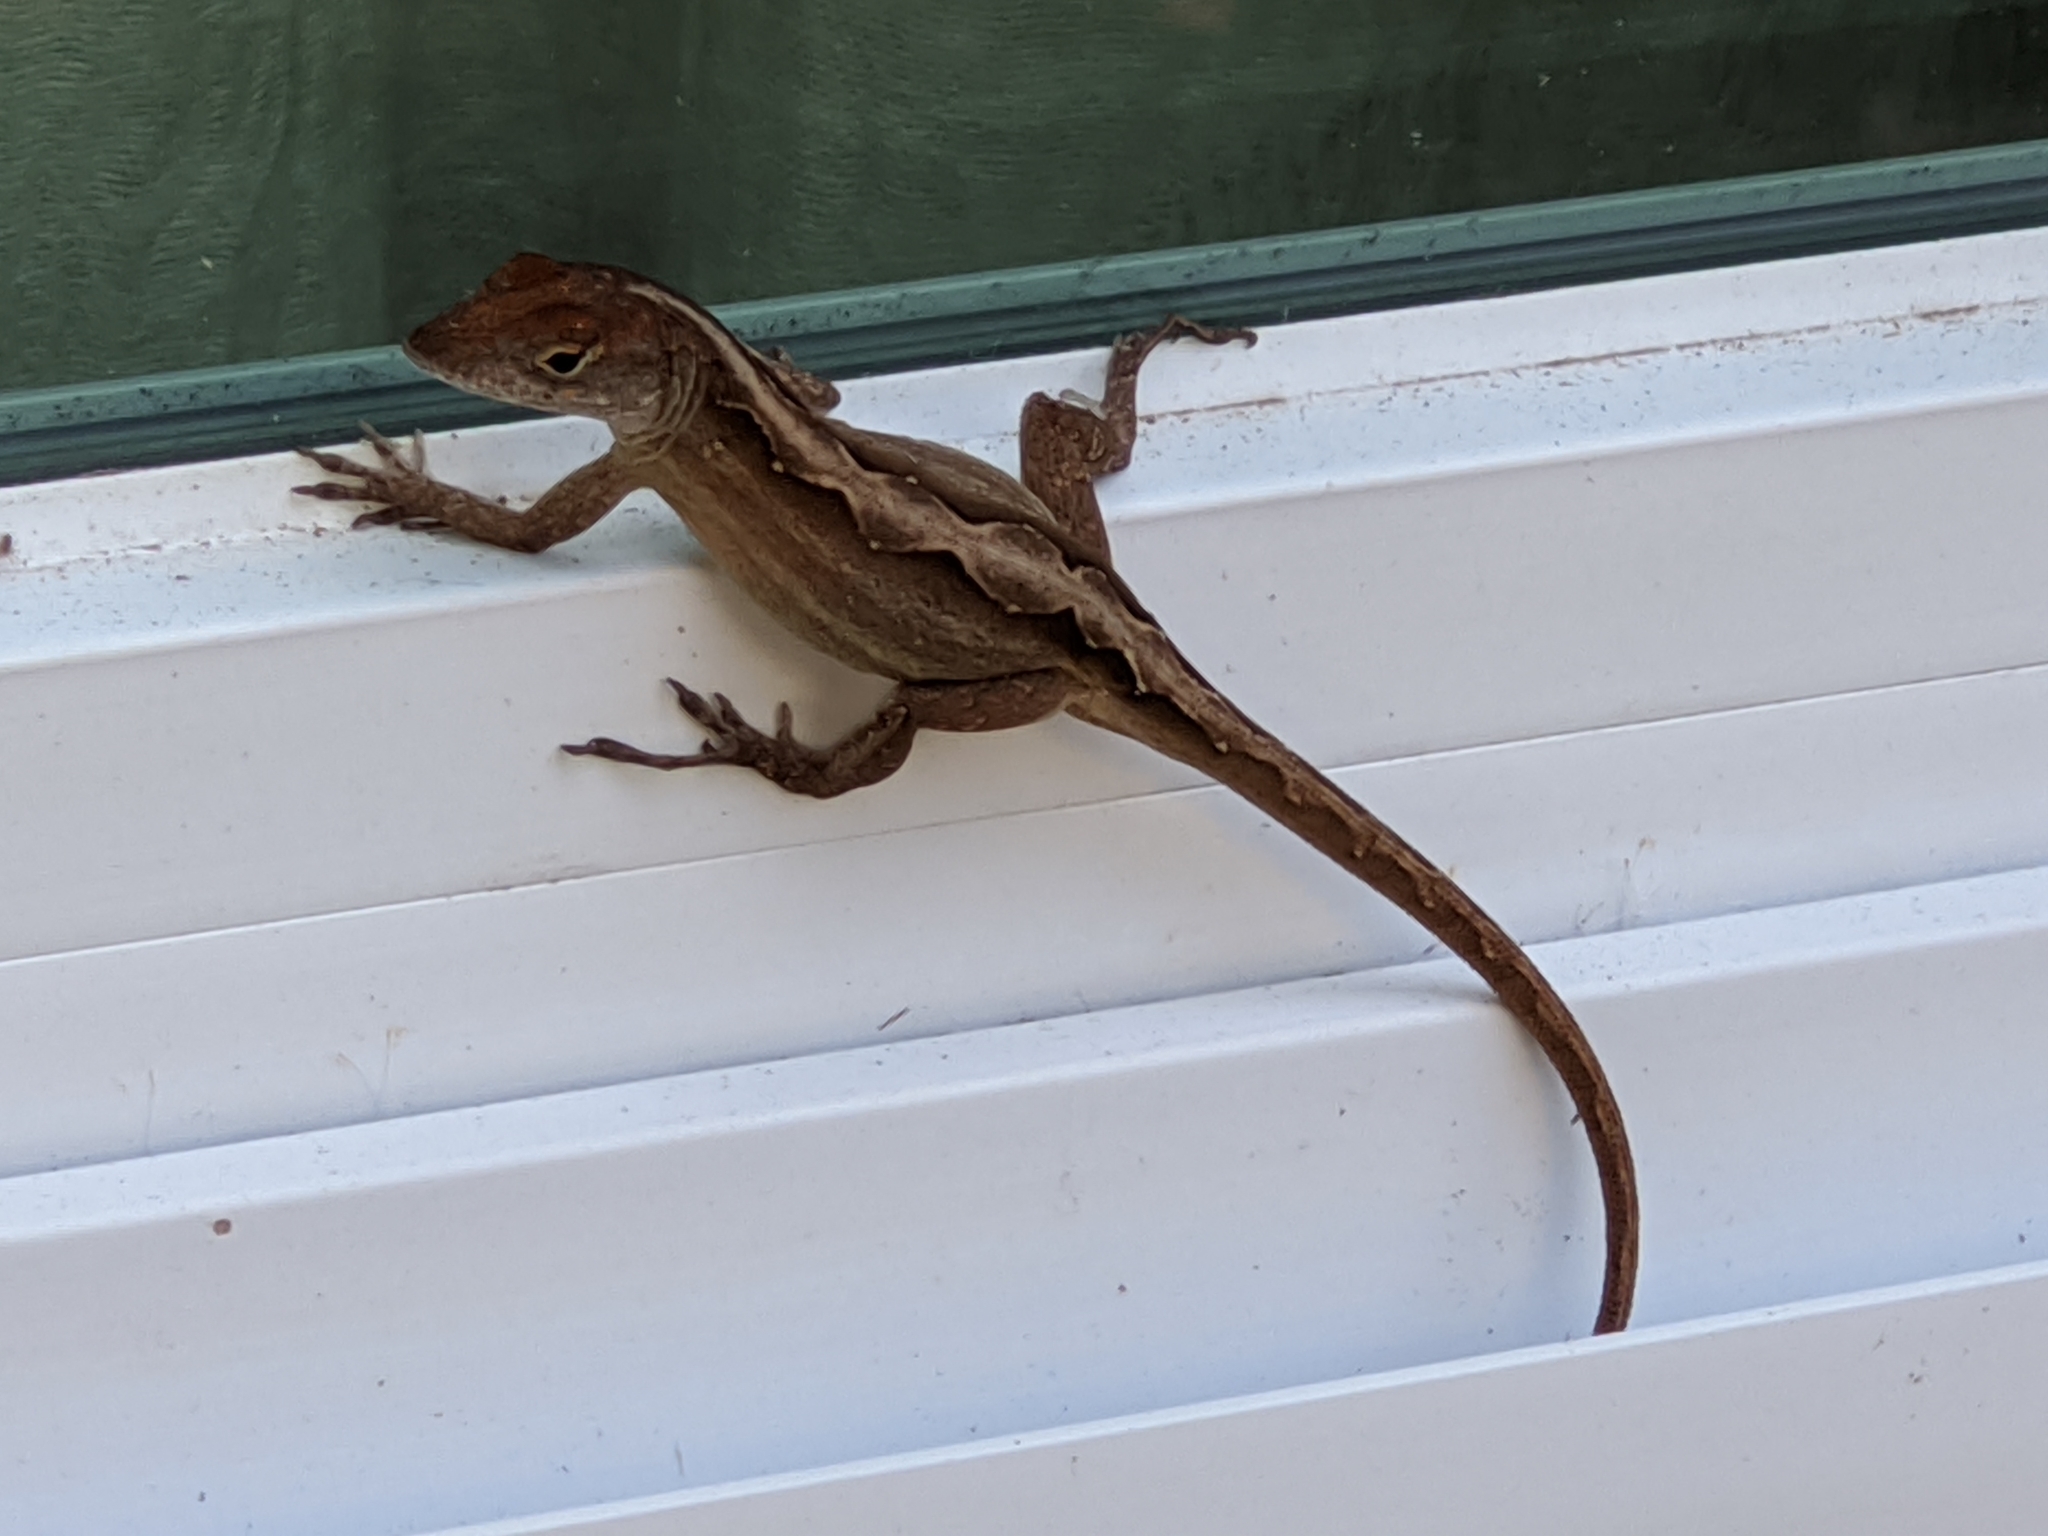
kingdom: Animalia
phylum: Chordata
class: Squamata
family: Dactyloidae
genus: Anolis
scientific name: Anolis sagrei
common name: Brown anole
